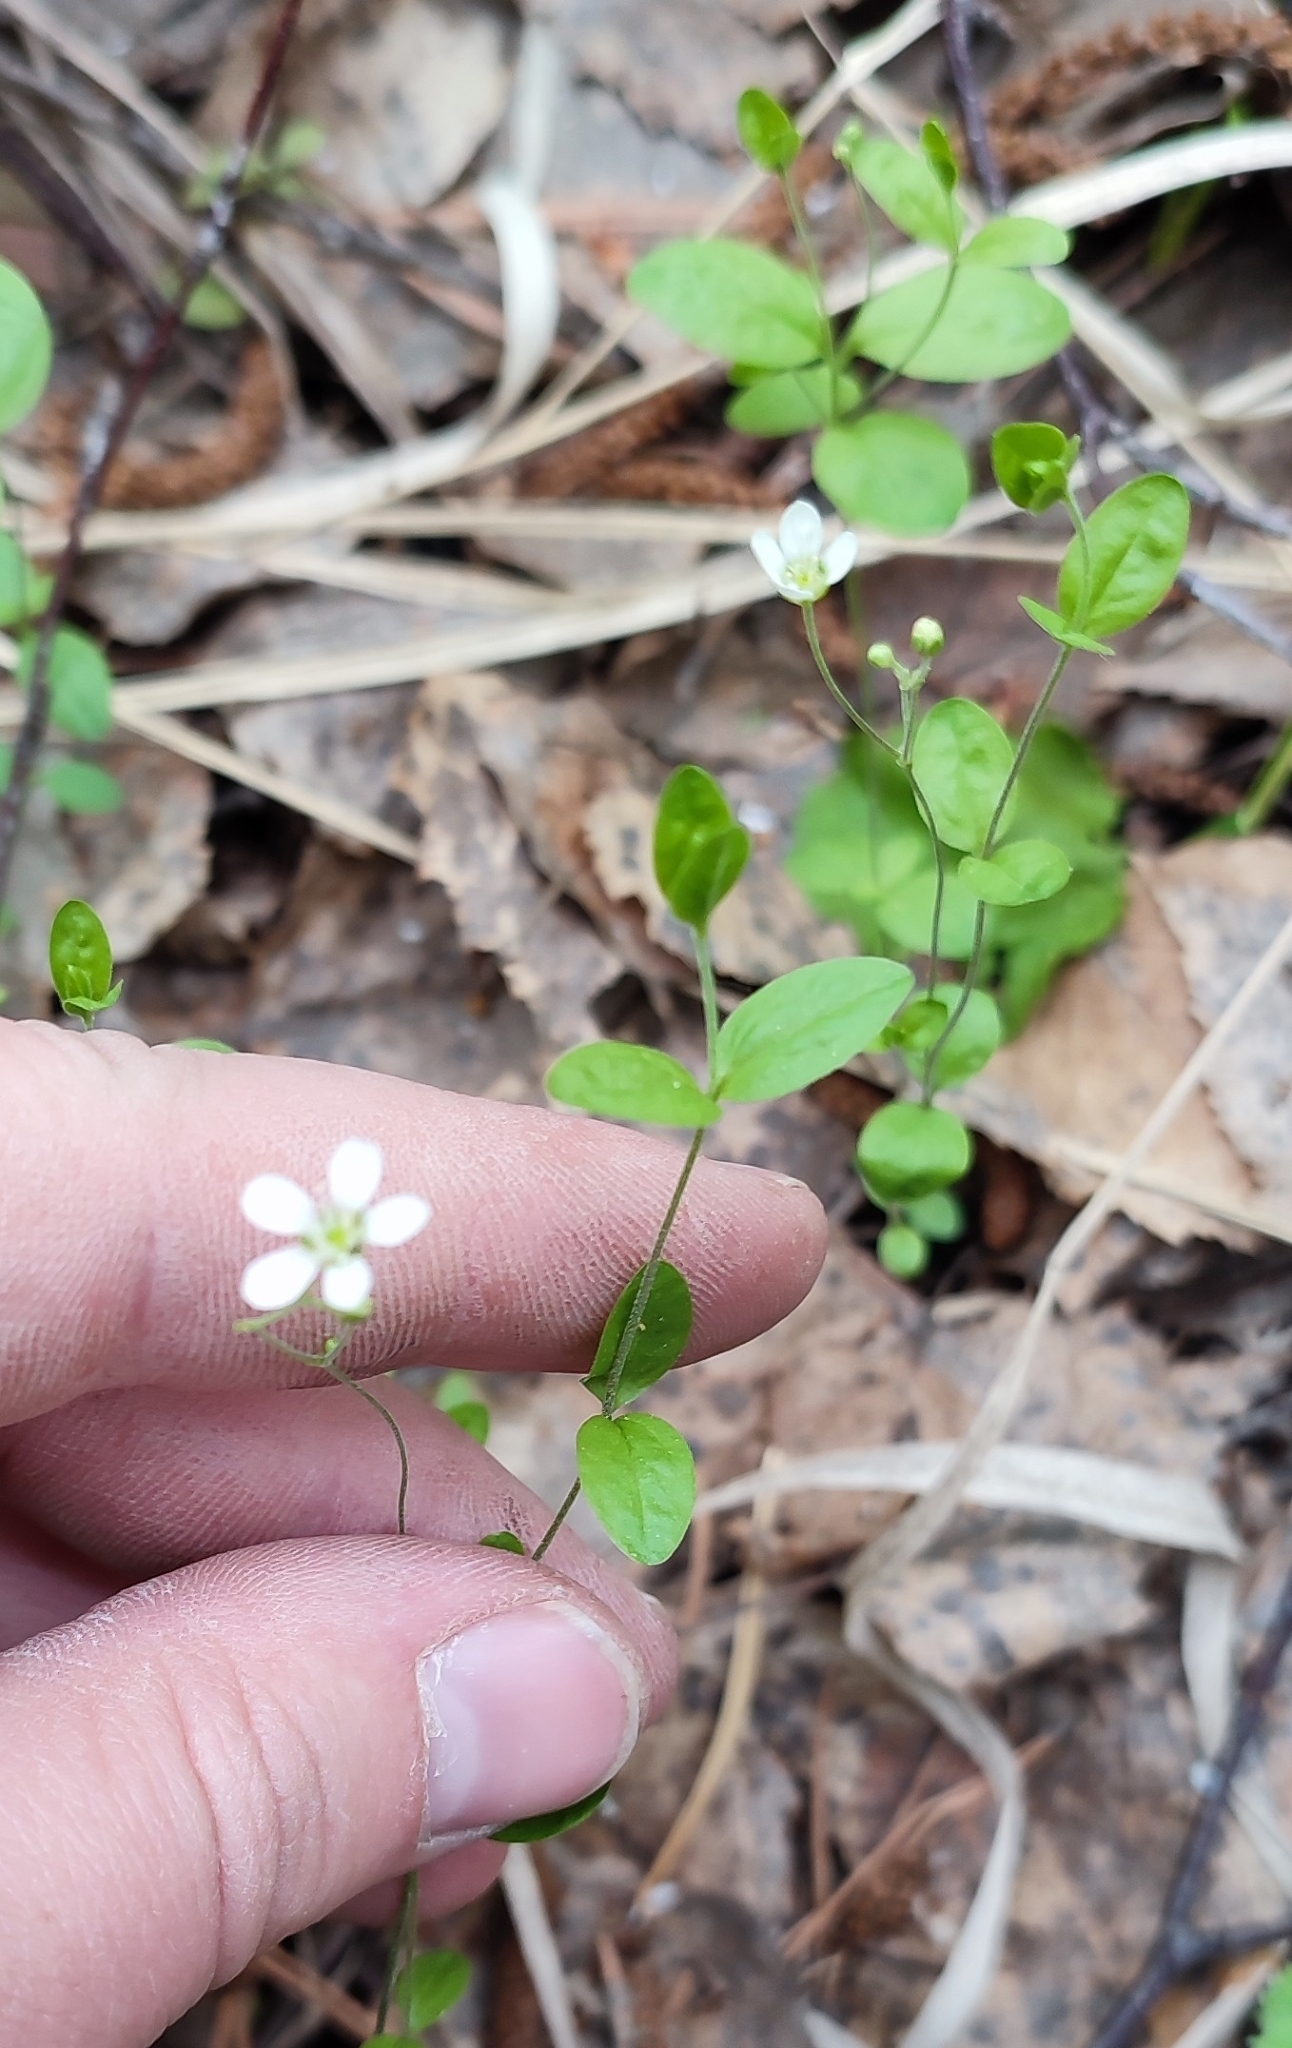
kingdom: Plantae
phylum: Tracheophyta
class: Magnoliopsida
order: Caryophyllales
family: Caryophyllaceae
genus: Moehringia
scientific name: Moehringia lateriflora
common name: Blunt-leaved sandwort
